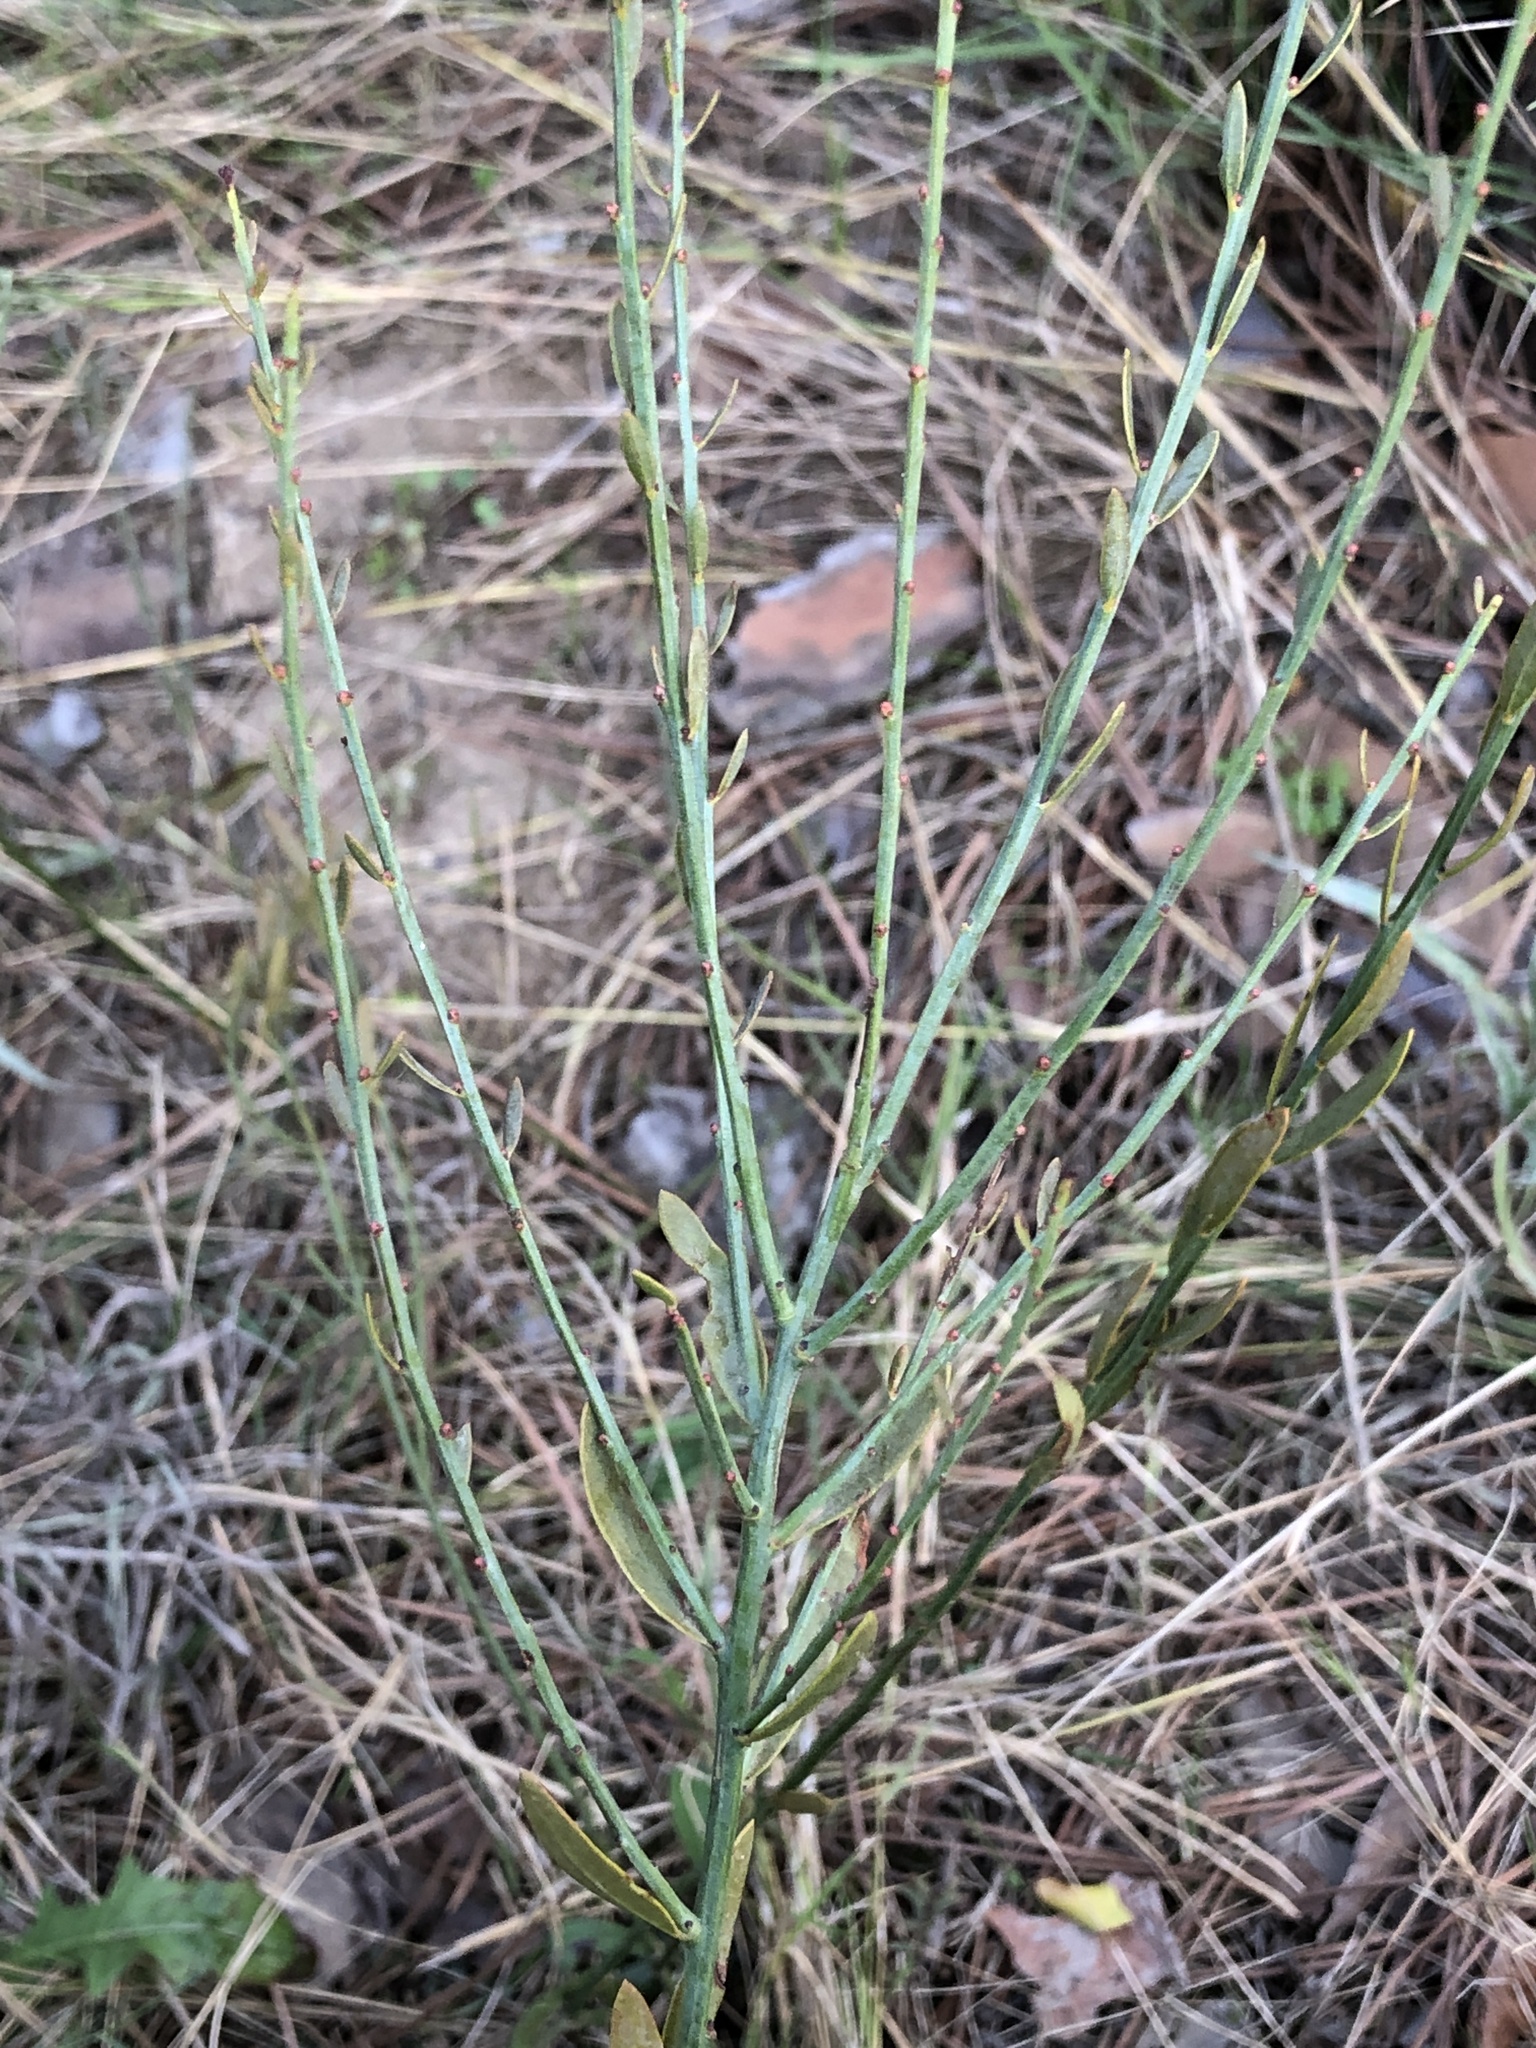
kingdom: Plantae
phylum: Tracheophyta
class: Magnoliopsida
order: Santalales
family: Santalaceae
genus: Osyris
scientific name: Osyris alba
